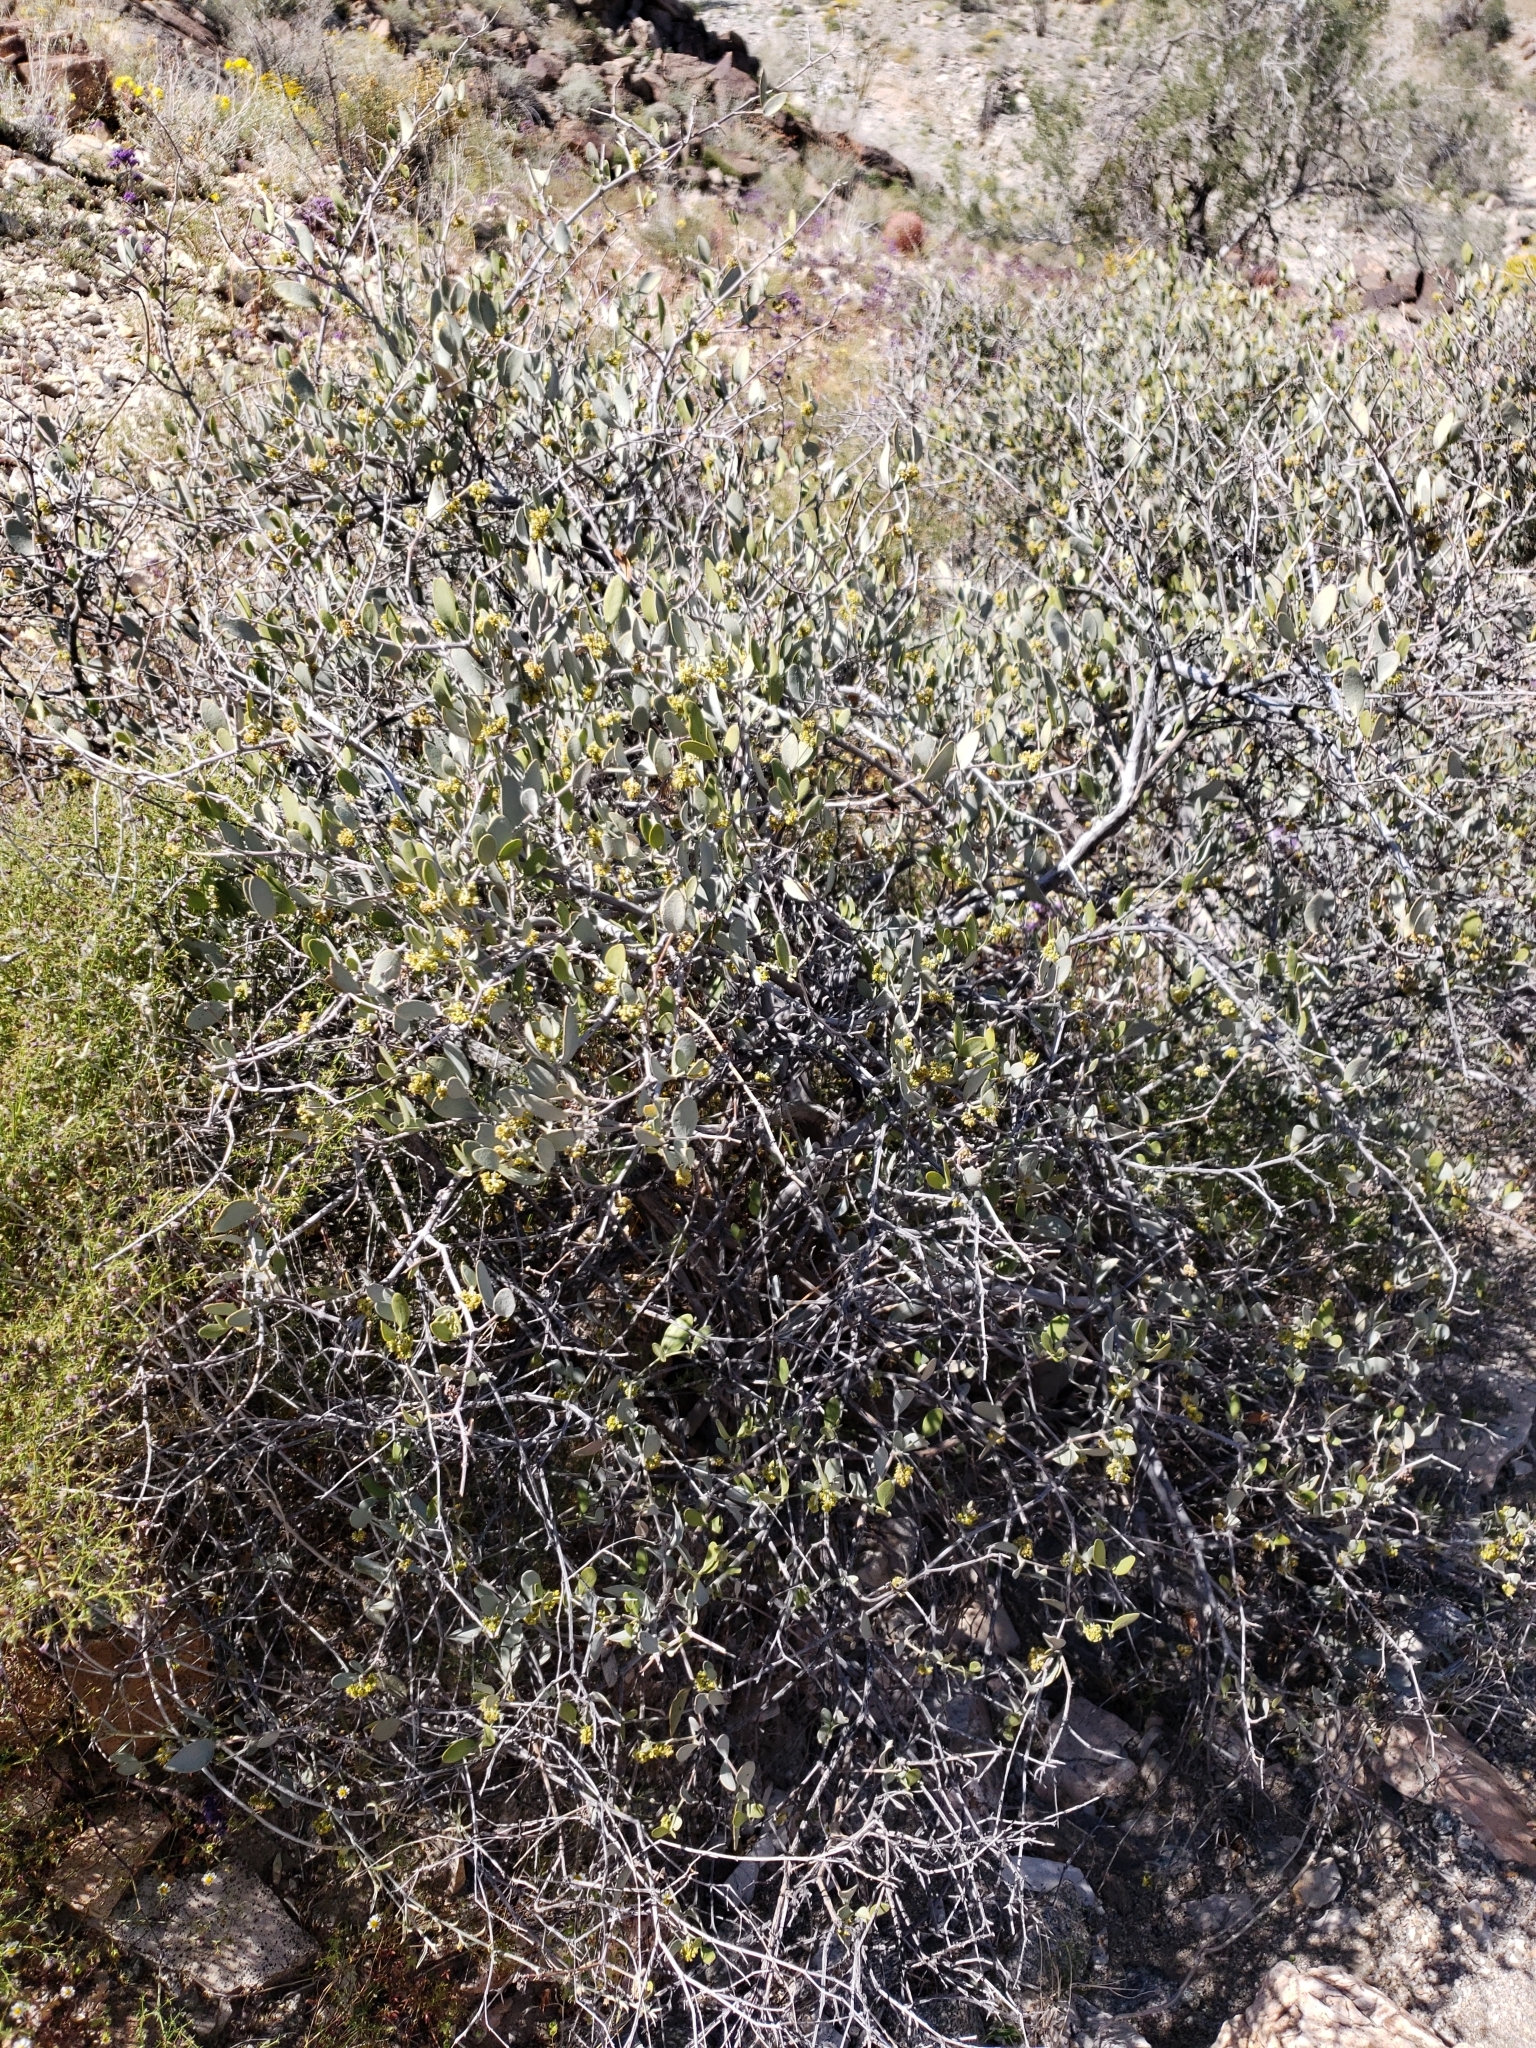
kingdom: Plantae
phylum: Tracheophyta
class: Magnoliopsida
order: Caryophyllales
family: Simmondsiaceae
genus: Simmondsia
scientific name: Simmondsia chinensis
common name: Jojoba
